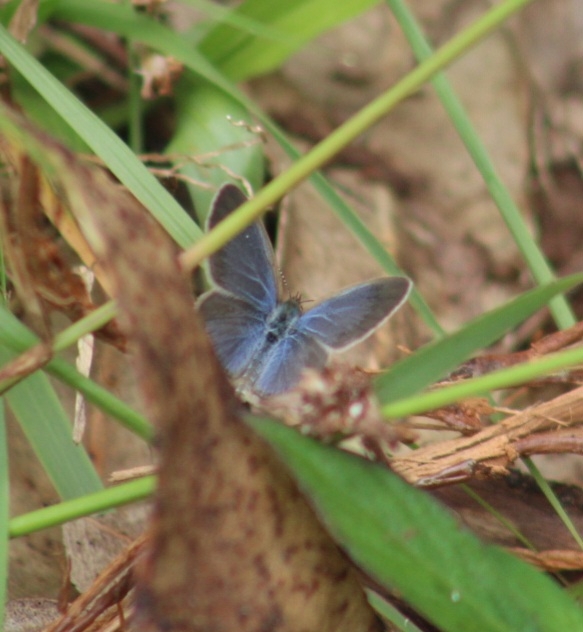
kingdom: Animalia
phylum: Arthropoda
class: Insecta
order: Lepidoptera
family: Lycaenidae
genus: Zizina
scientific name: Zizina otis
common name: Lesser grass blue
